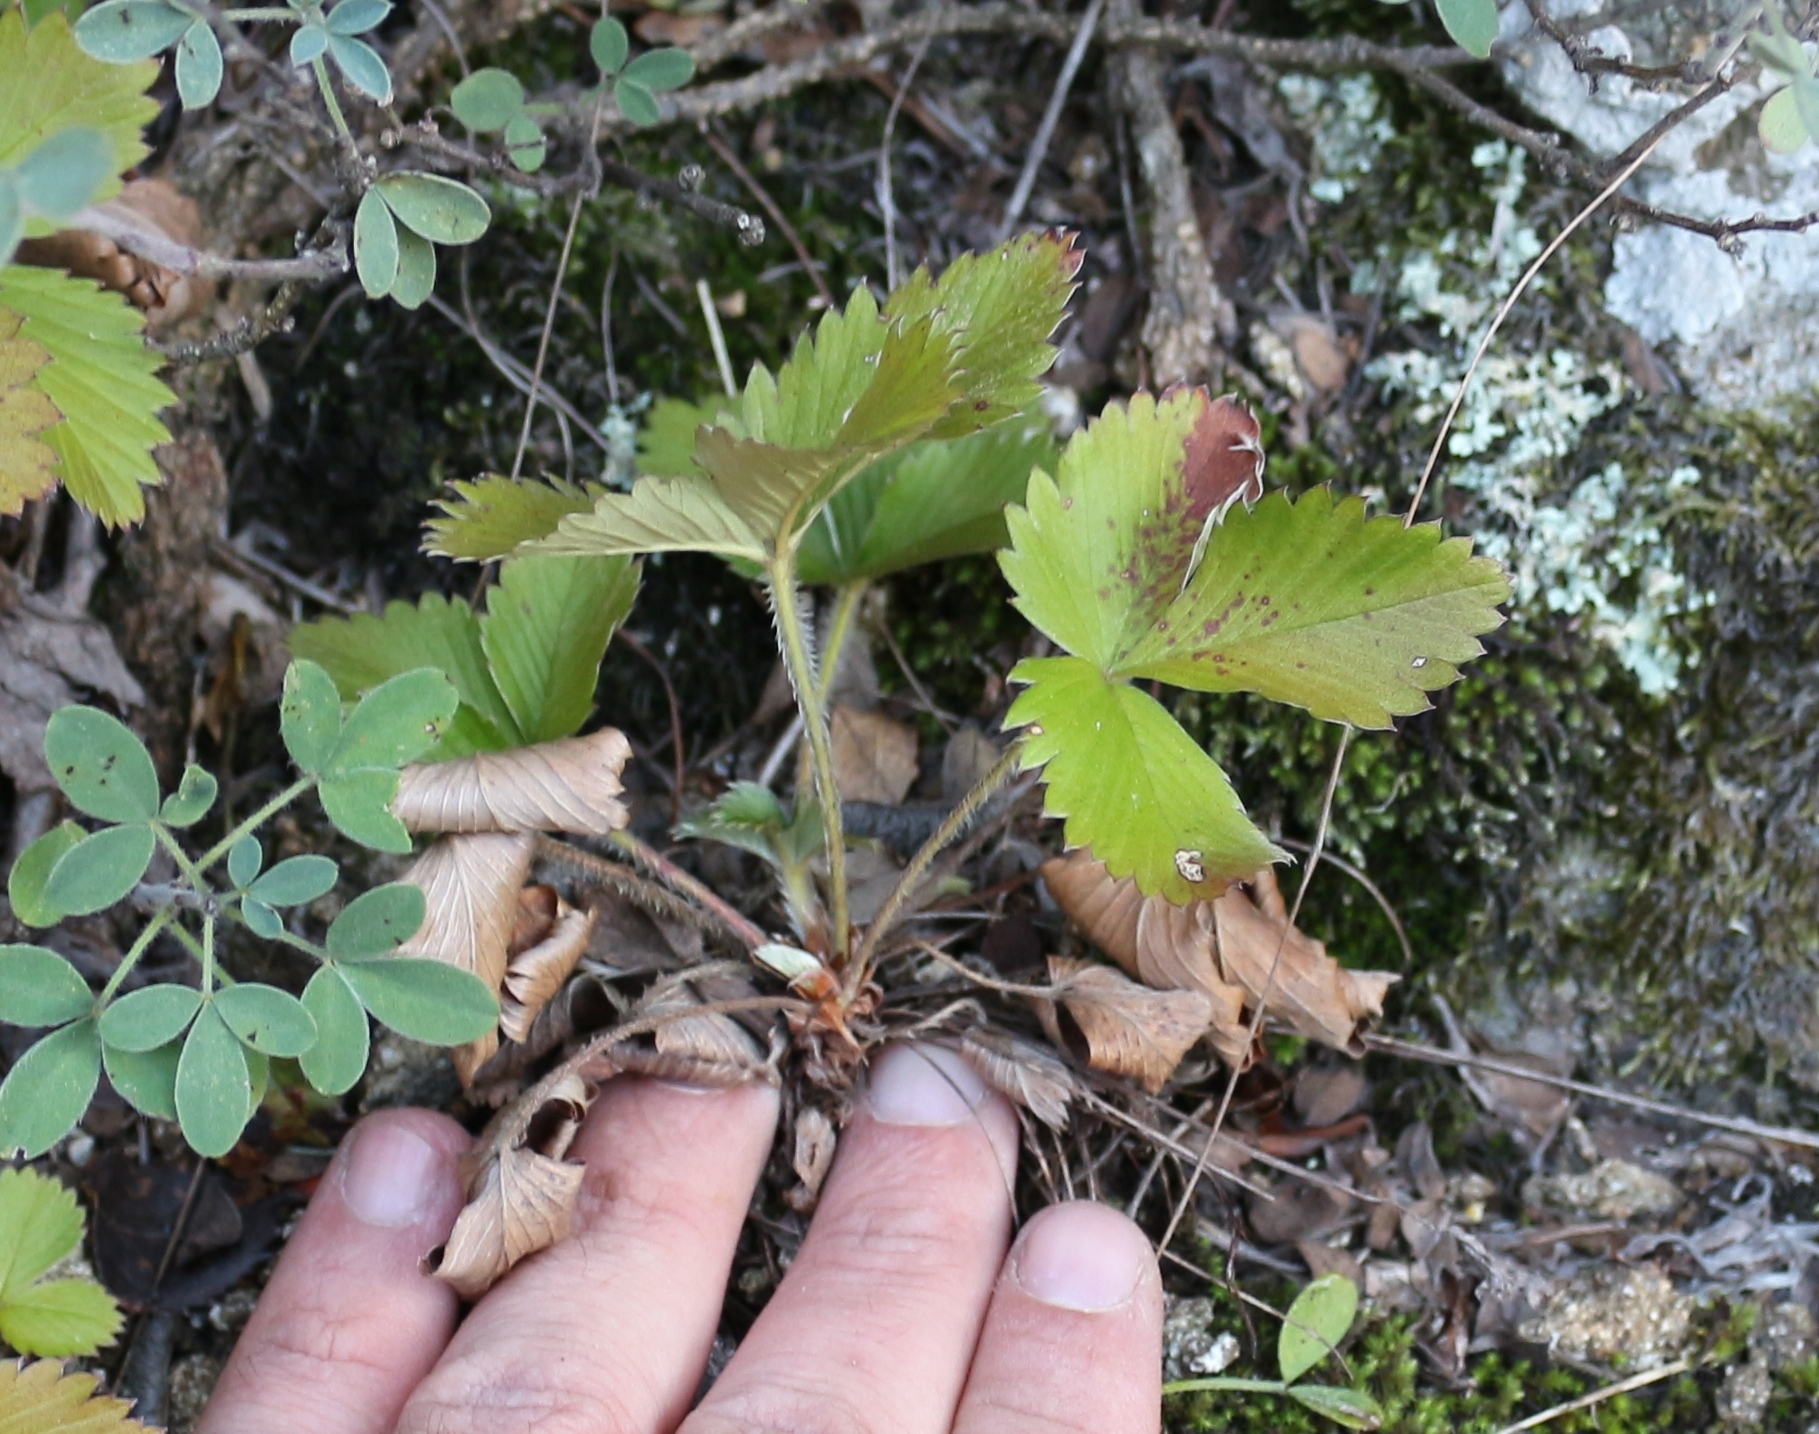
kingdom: Plantae
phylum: Tracheophyta
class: Magnoliopsida
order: Rosales
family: Rosaceae
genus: Fragaria
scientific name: Fragaria vesca
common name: Wild strawberry
